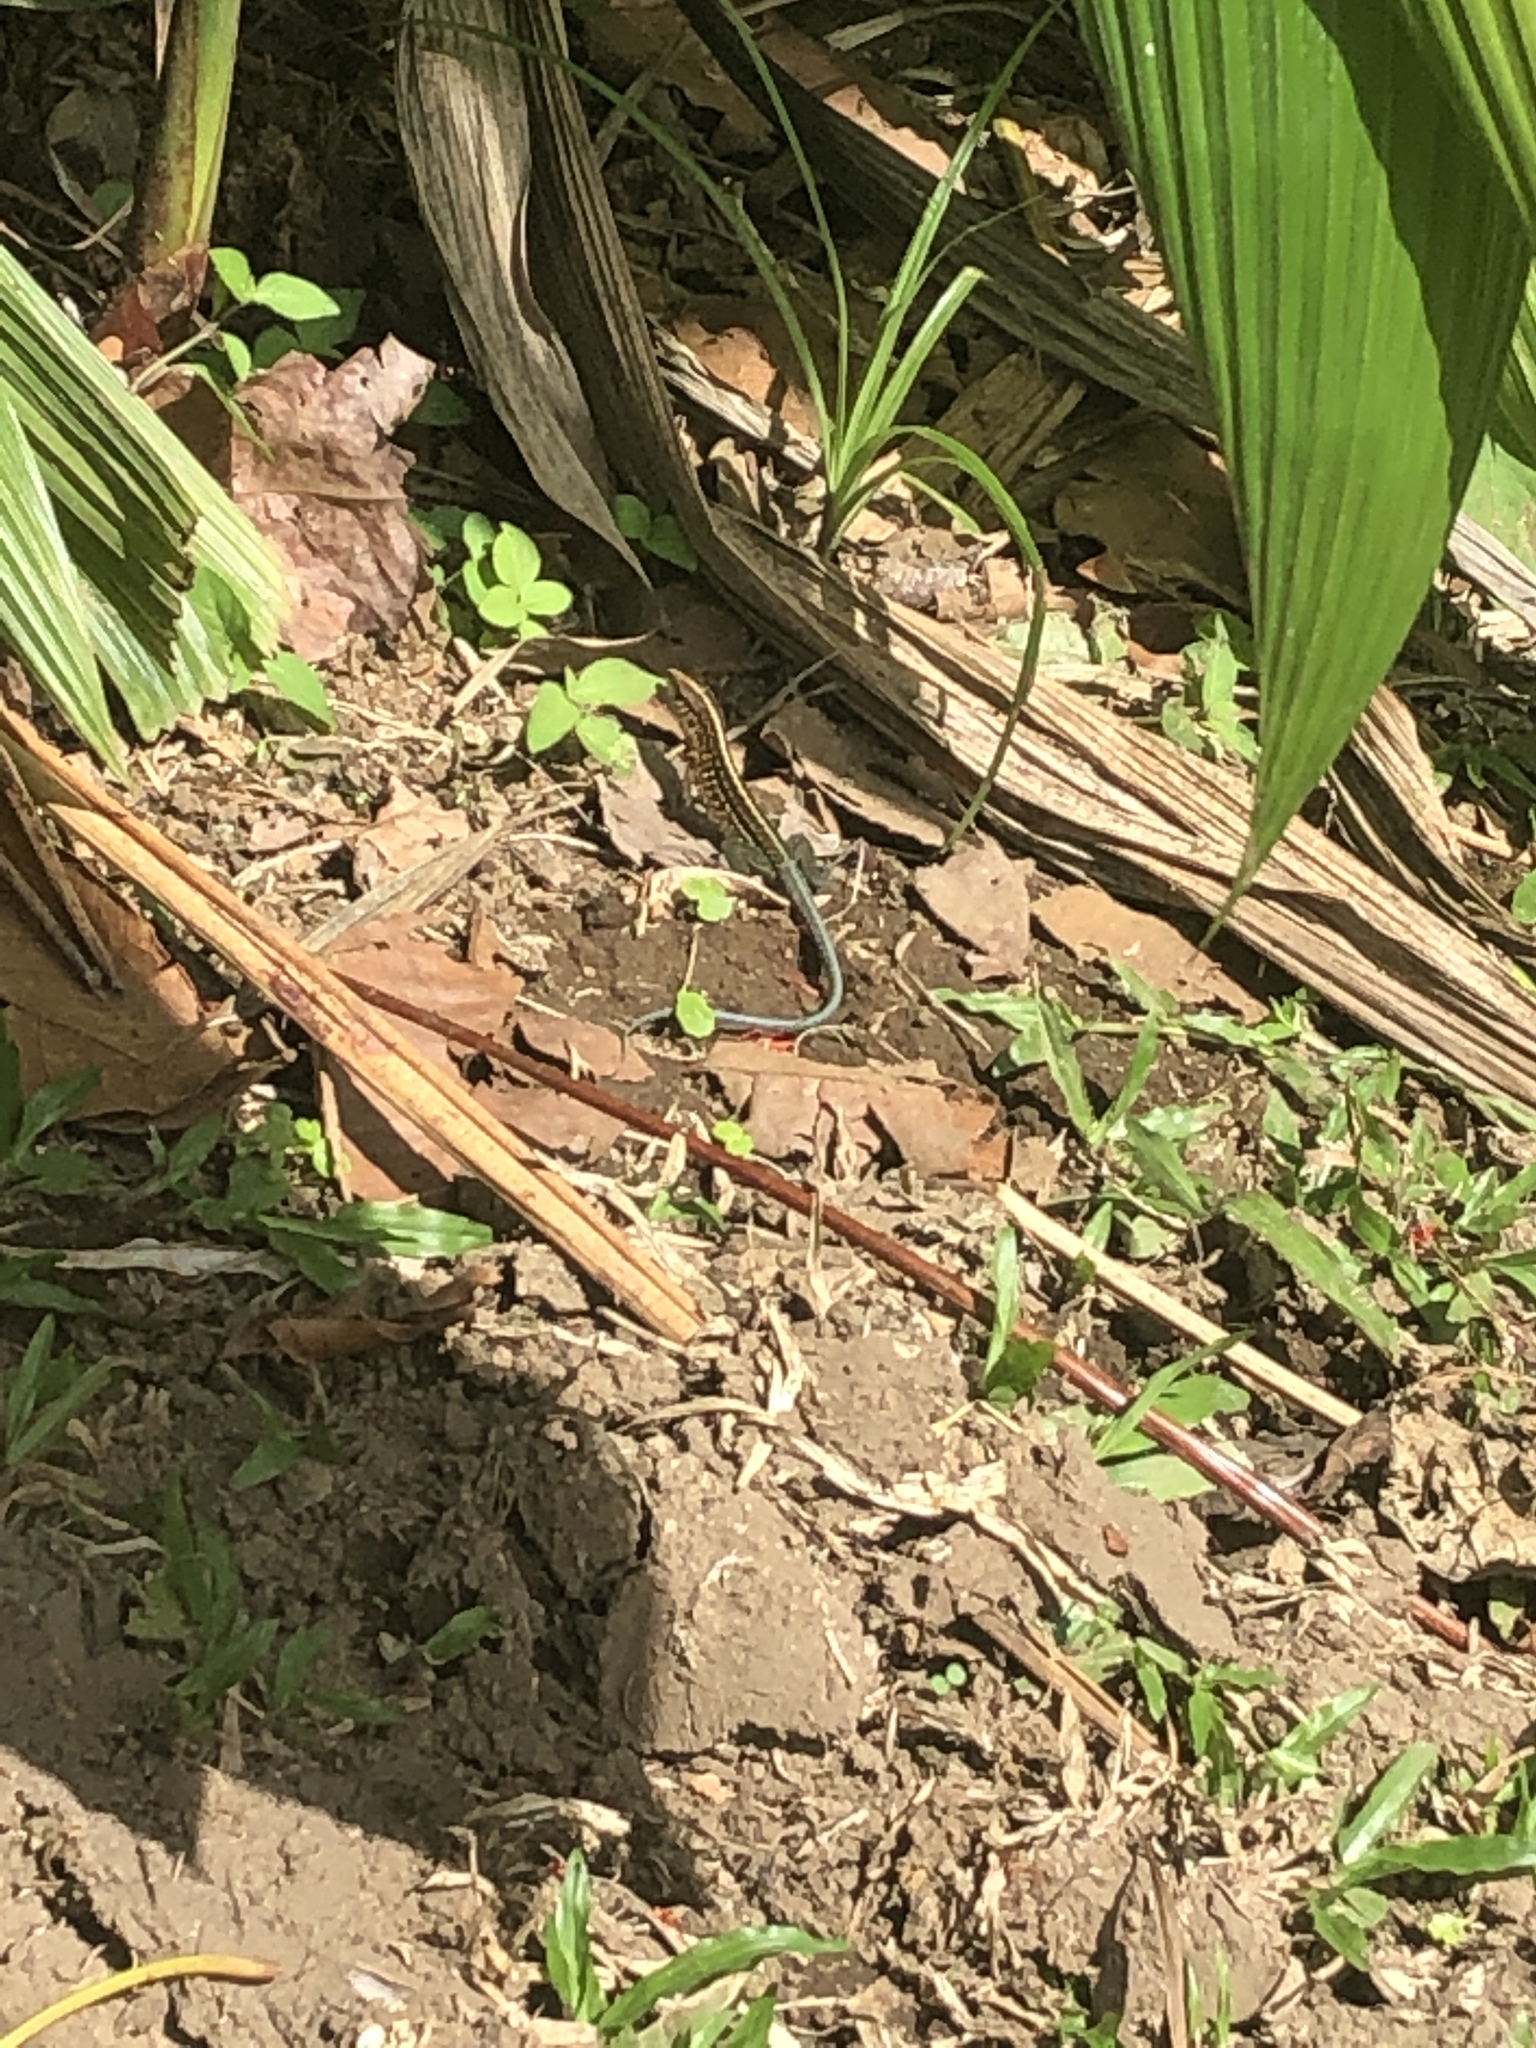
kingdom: Animalia
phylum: Chordata
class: Squamata
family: Teiidae
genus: Holcosus
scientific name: Holcosus festivus
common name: Middle american ameiva
